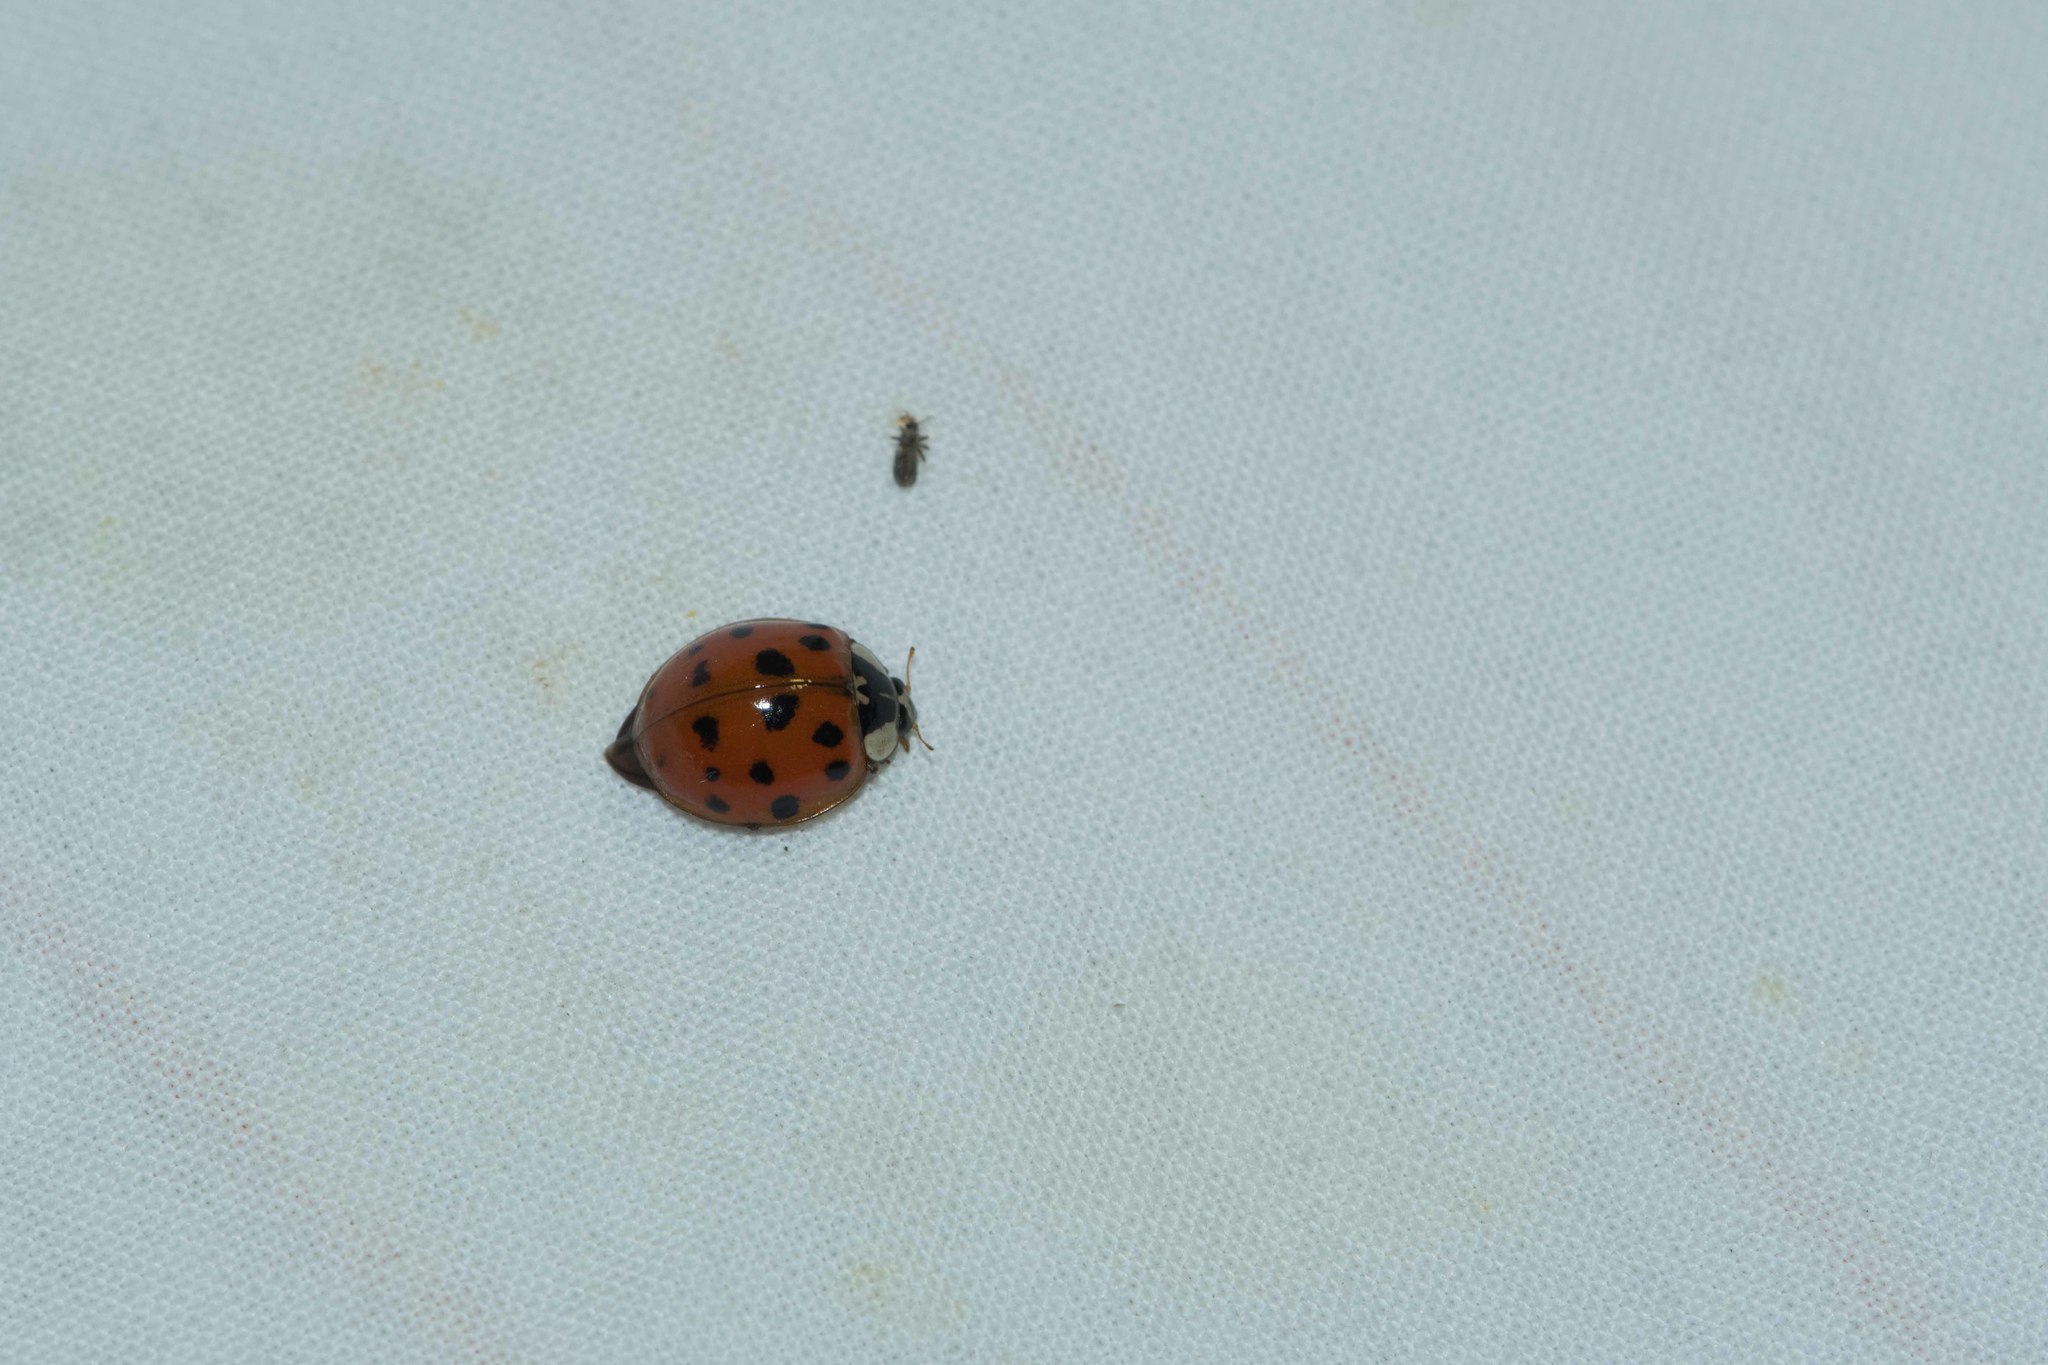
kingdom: Animalia
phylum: Arthropoda
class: Insecta
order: Coleoptera
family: Coccinellidae
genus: Harmonia
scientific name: Harmonia axyridis
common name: Harlequin ladybird
